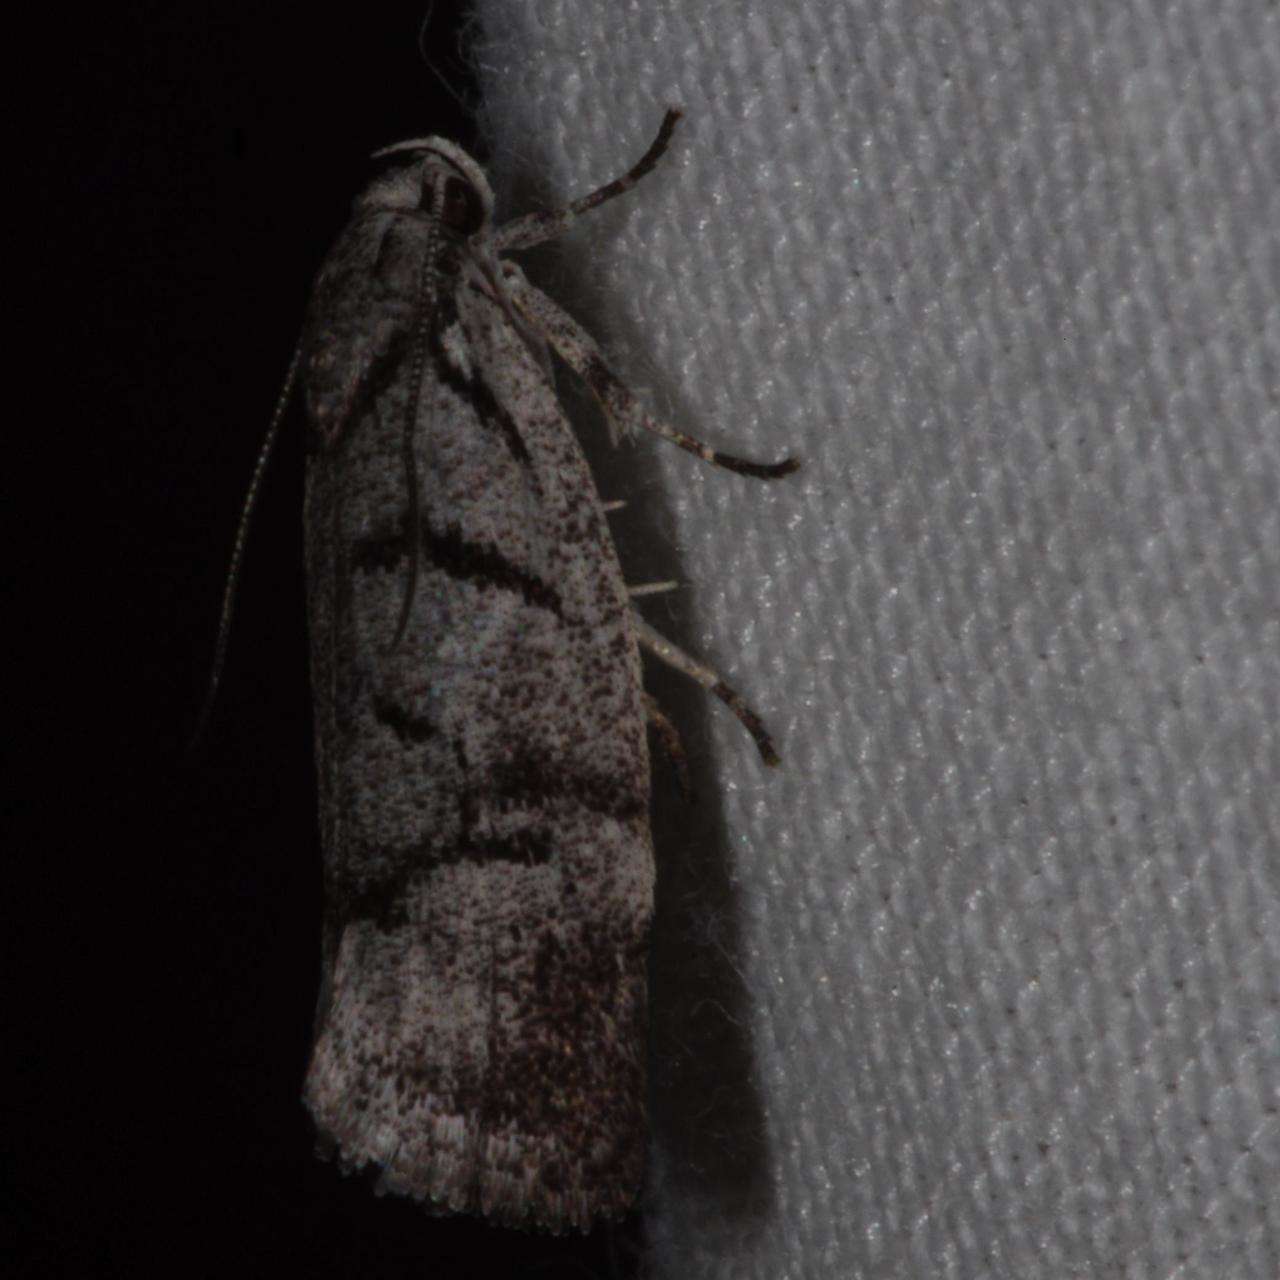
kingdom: Animalia
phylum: Arthropoda
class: Insecta
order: Lepidoptera
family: Xyloryctidae
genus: Lichenaula
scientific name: Lichenaula onychodes
